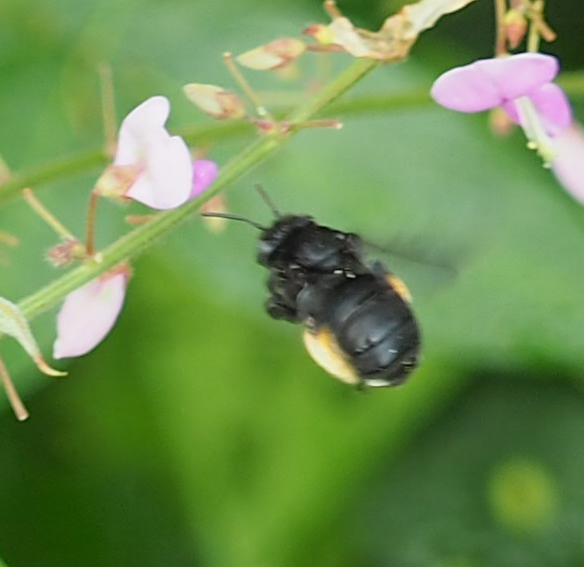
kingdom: Animalia
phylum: Arthropoda
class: Insecta
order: Hymenoptera
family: Apidae
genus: Melissodes
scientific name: Melissodes bimaculatus
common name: Two-spotted long-horned bee
